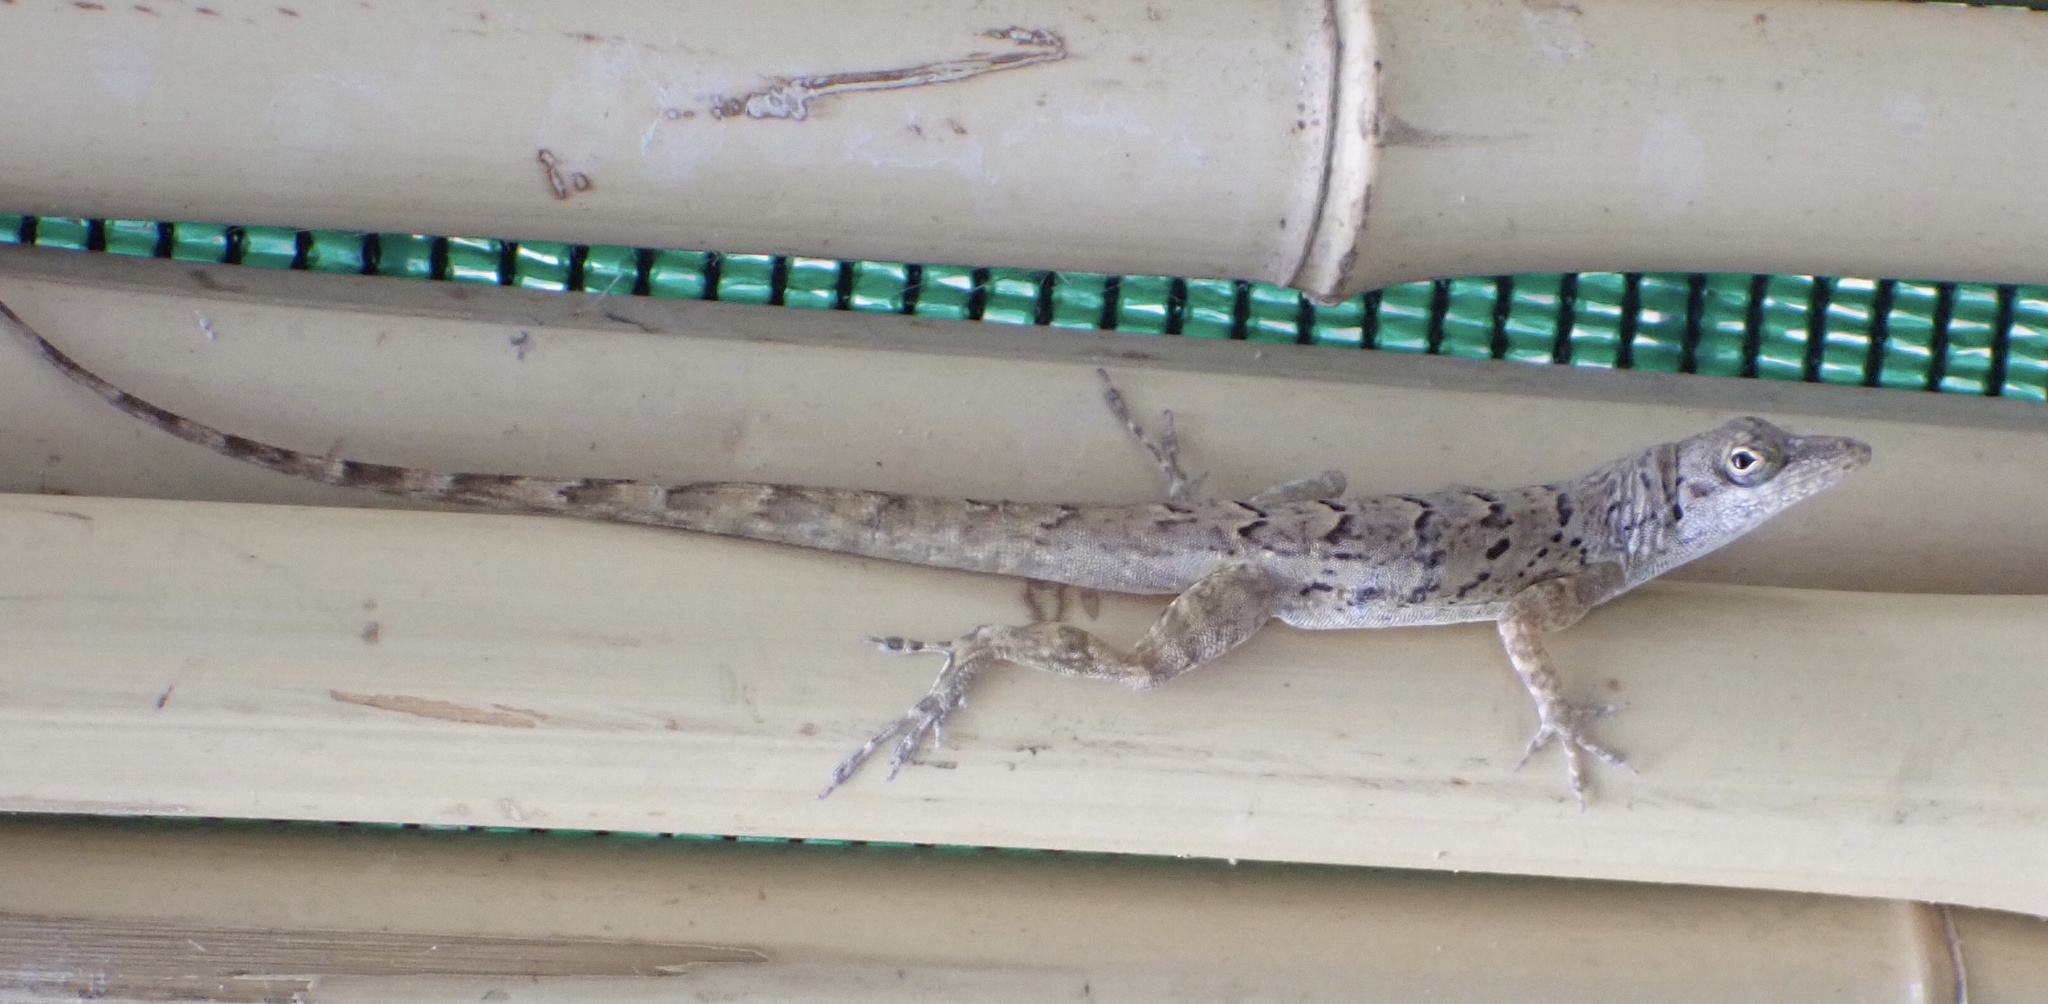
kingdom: Animalia
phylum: Chordata
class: Squamata
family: Dactyloidae
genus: Anolis
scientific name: Anolis bonairensis
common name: Ruthven's anole
